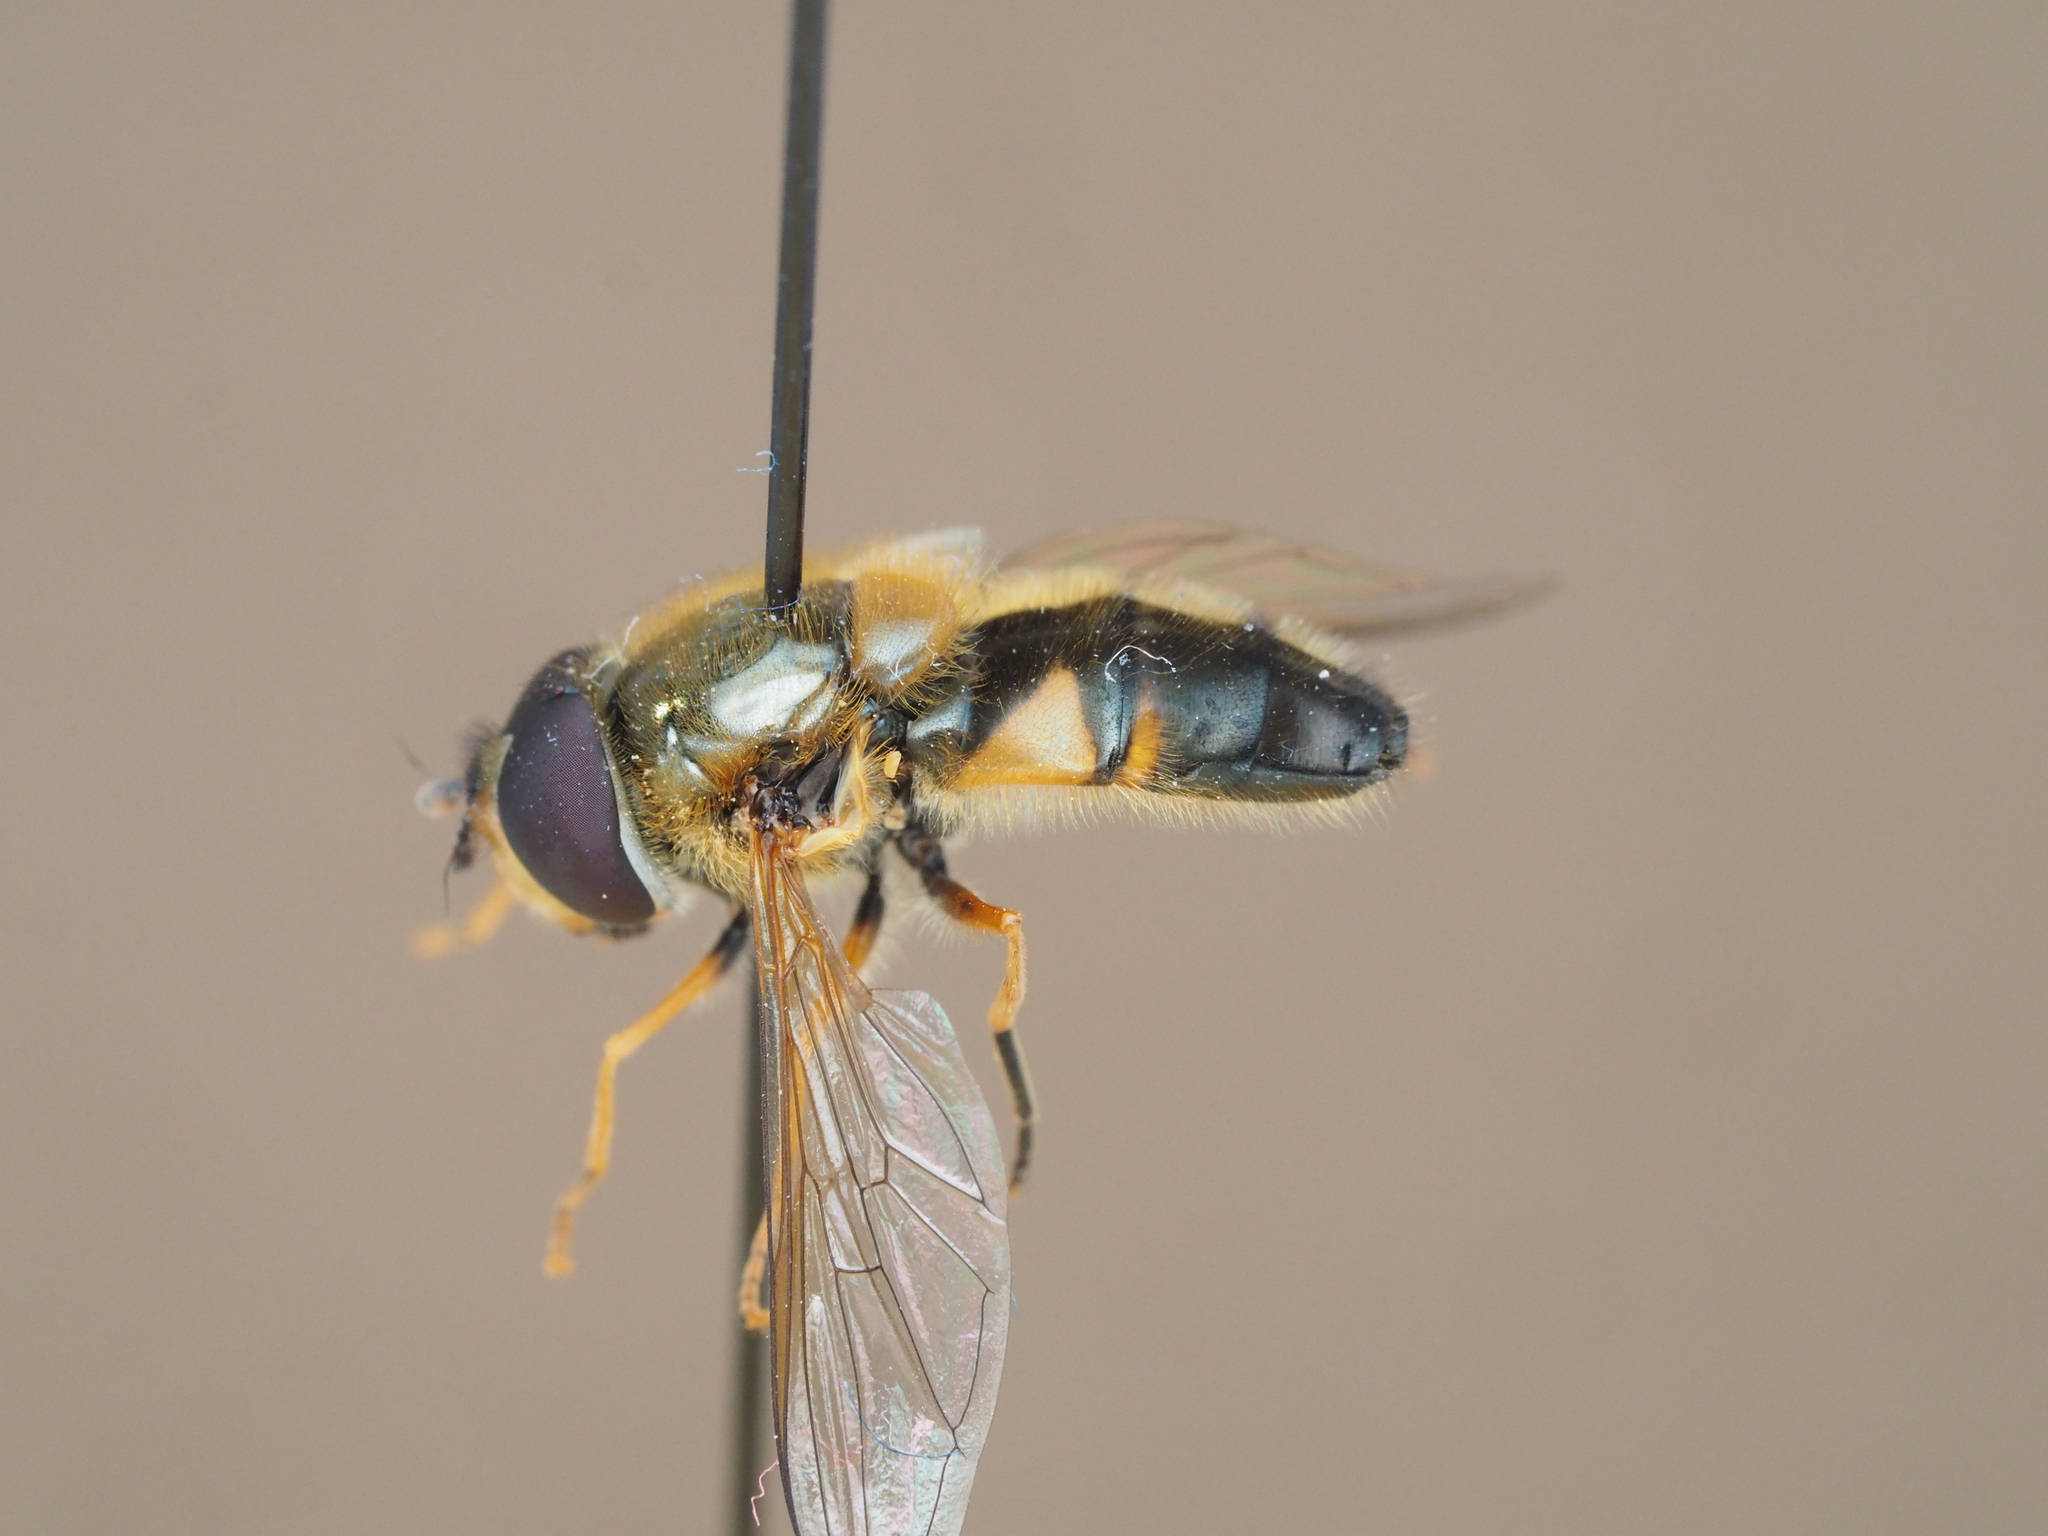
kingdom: Animalia
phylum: Arthropoda
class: Insecta
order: Diptera
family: Syrphidae
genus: Epistrophe
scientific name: Epistrophe eligans
